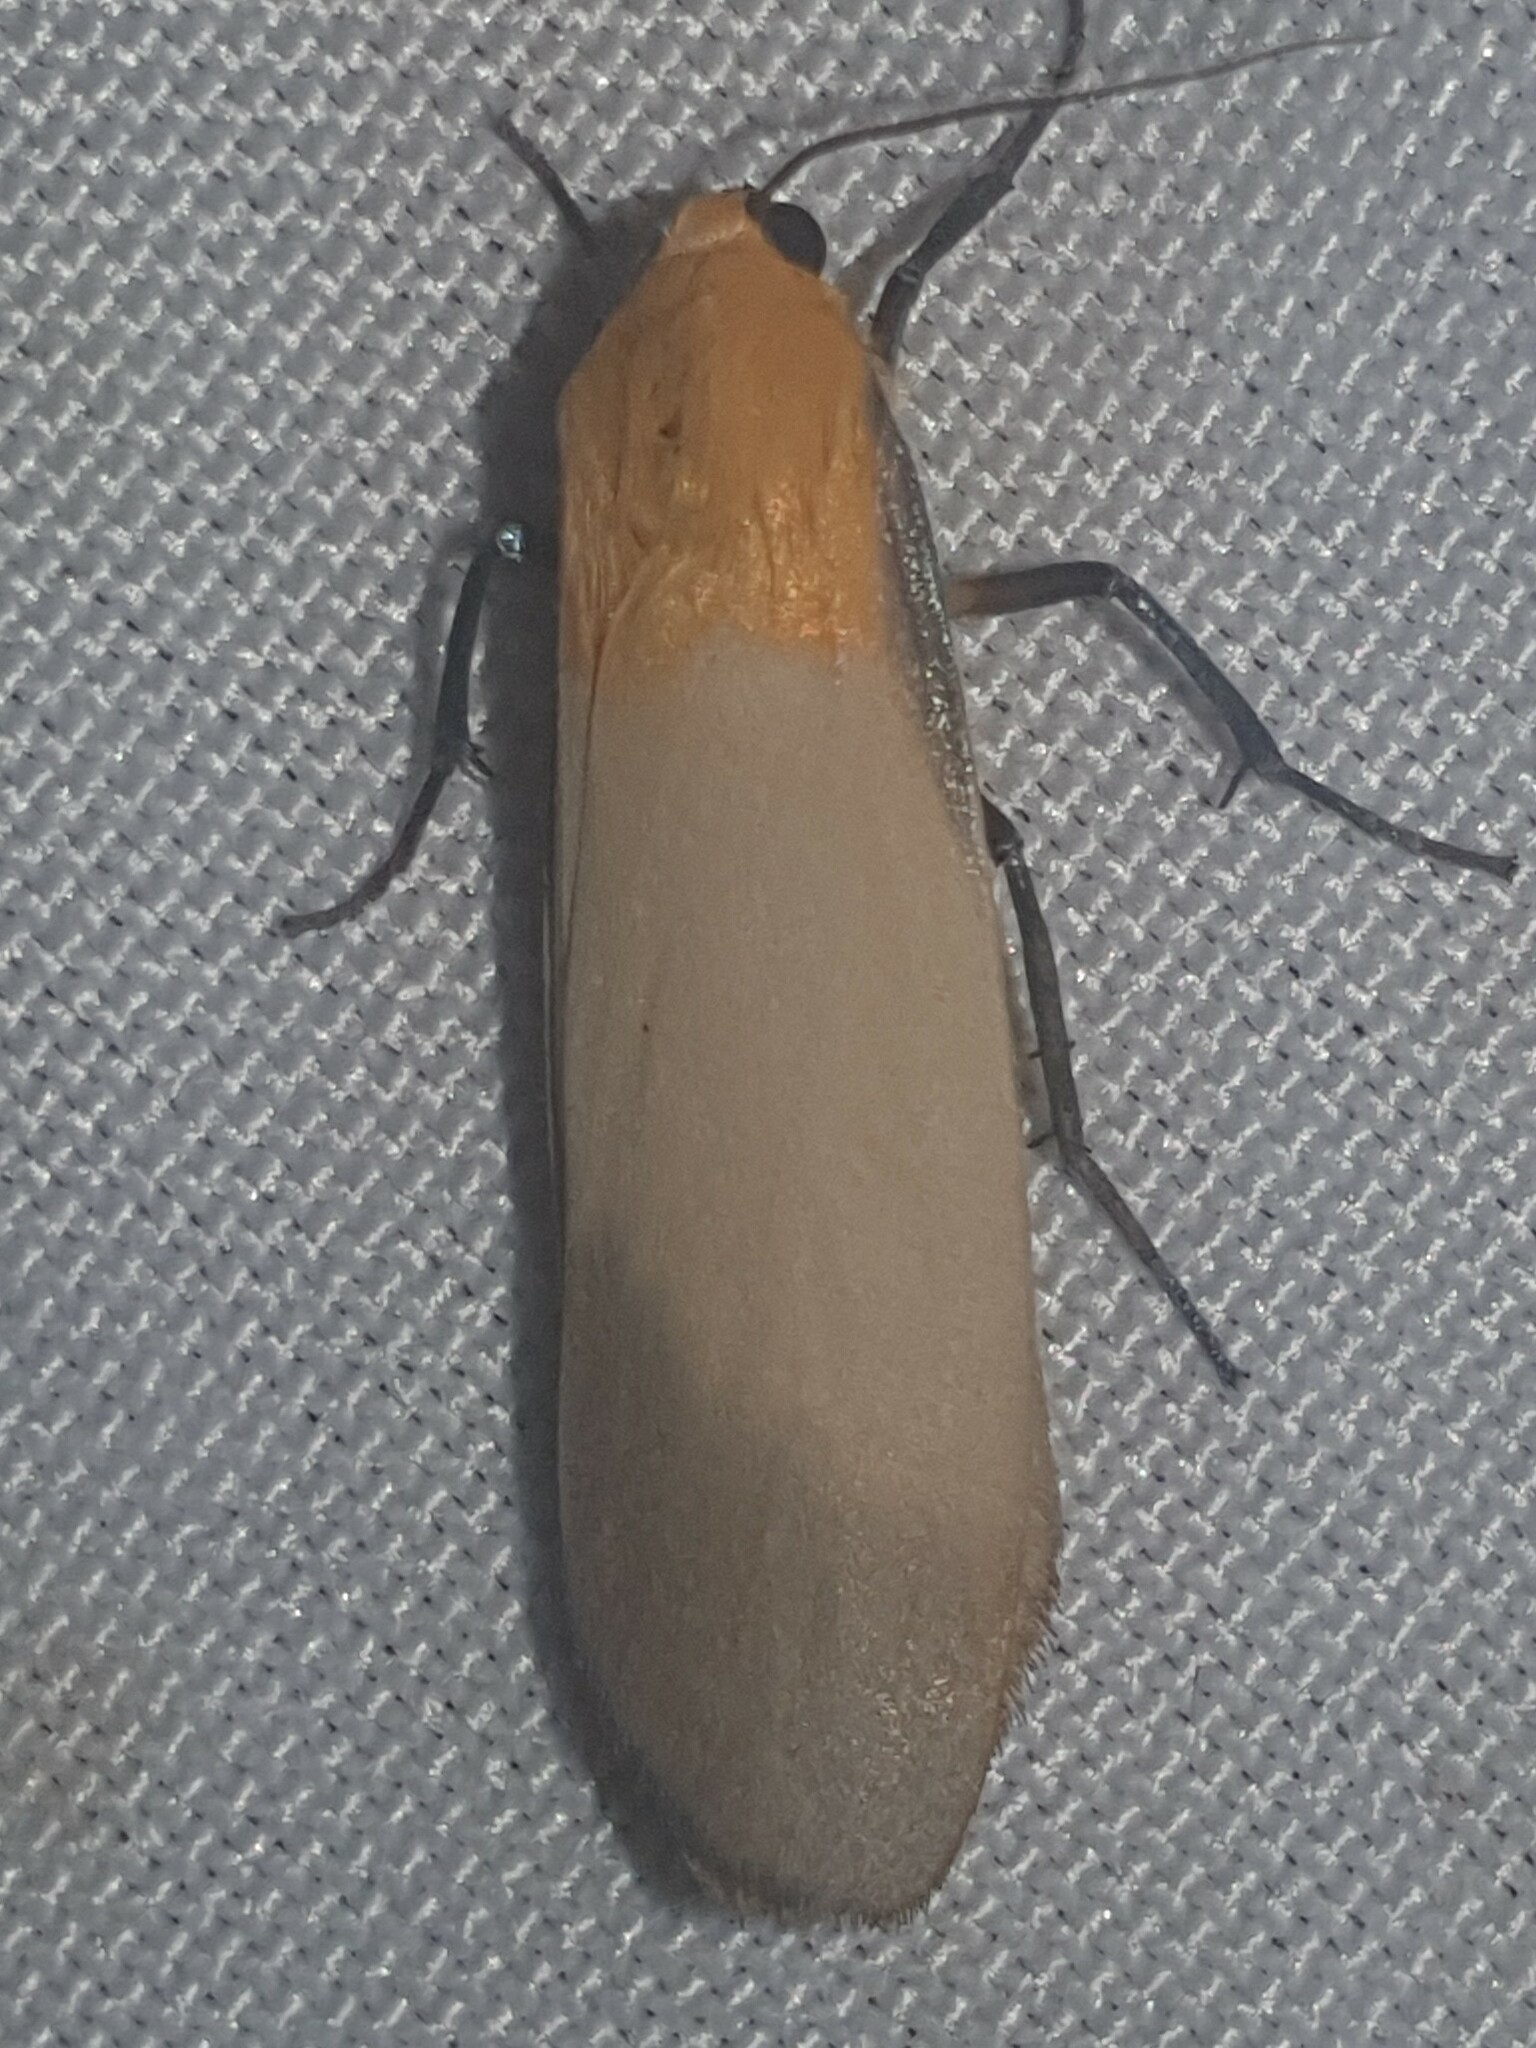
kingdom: Animalia
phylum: Arthropoda
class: Insecta
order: Lepidoptera
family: Erebidae
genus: Lithosia
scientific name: Lithosia quadra
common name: Four-spotted footman
